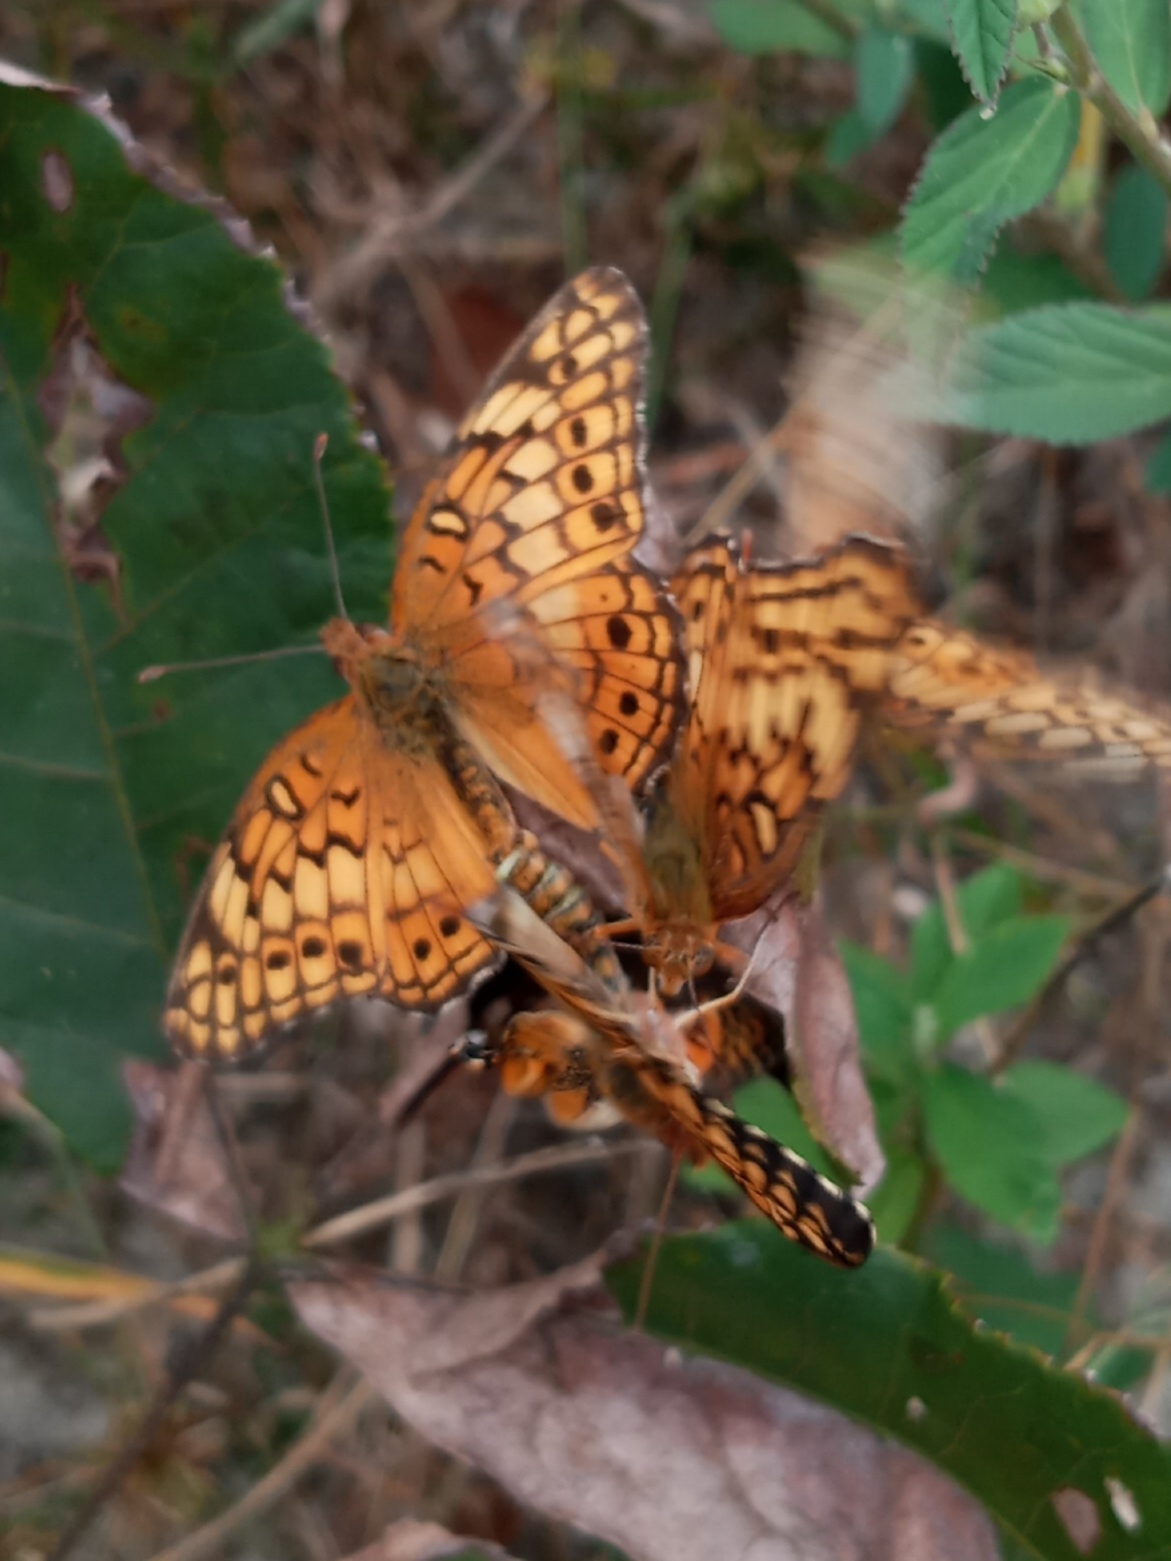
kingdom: Animalia
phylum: Arthropoda
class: Insecta
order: Lepidoptera
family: Nymphalidae
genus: Euptoieta
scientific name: Euptoieta claudia
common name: Variegated fritillary
